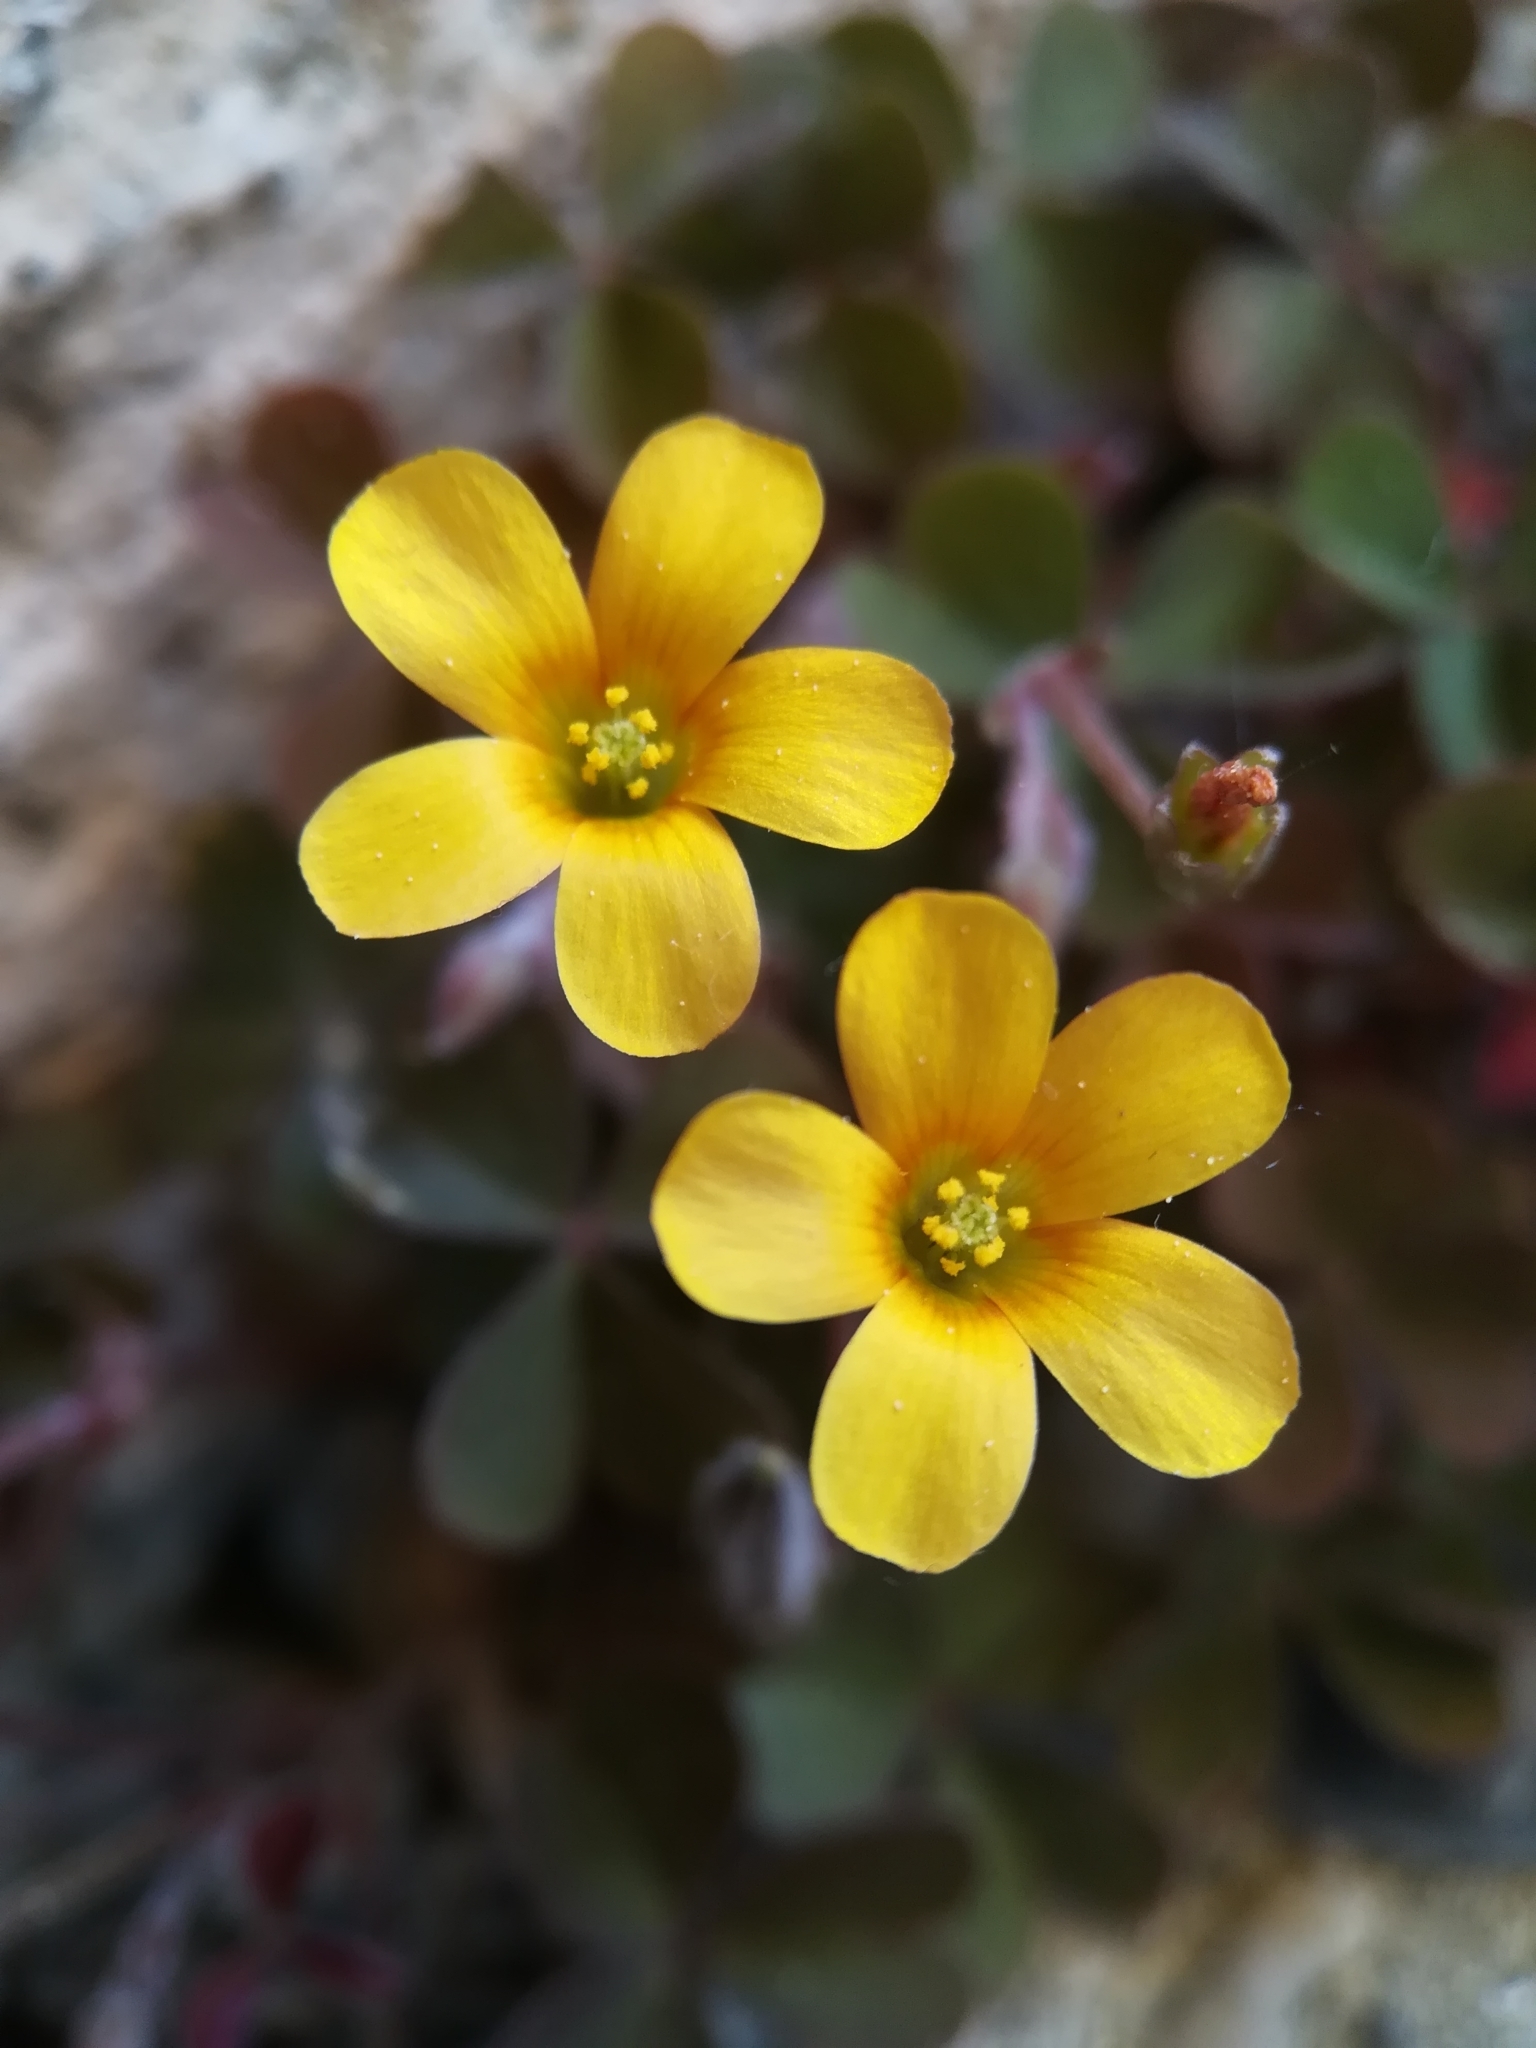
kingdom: Plantae
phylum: Tracheophyta
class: Magnoliopsida
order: Oxalidales
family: Oxalidaceae
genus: Oxalis
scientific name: Oxalis corniculata
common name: Procumbent yellow-sorrel
